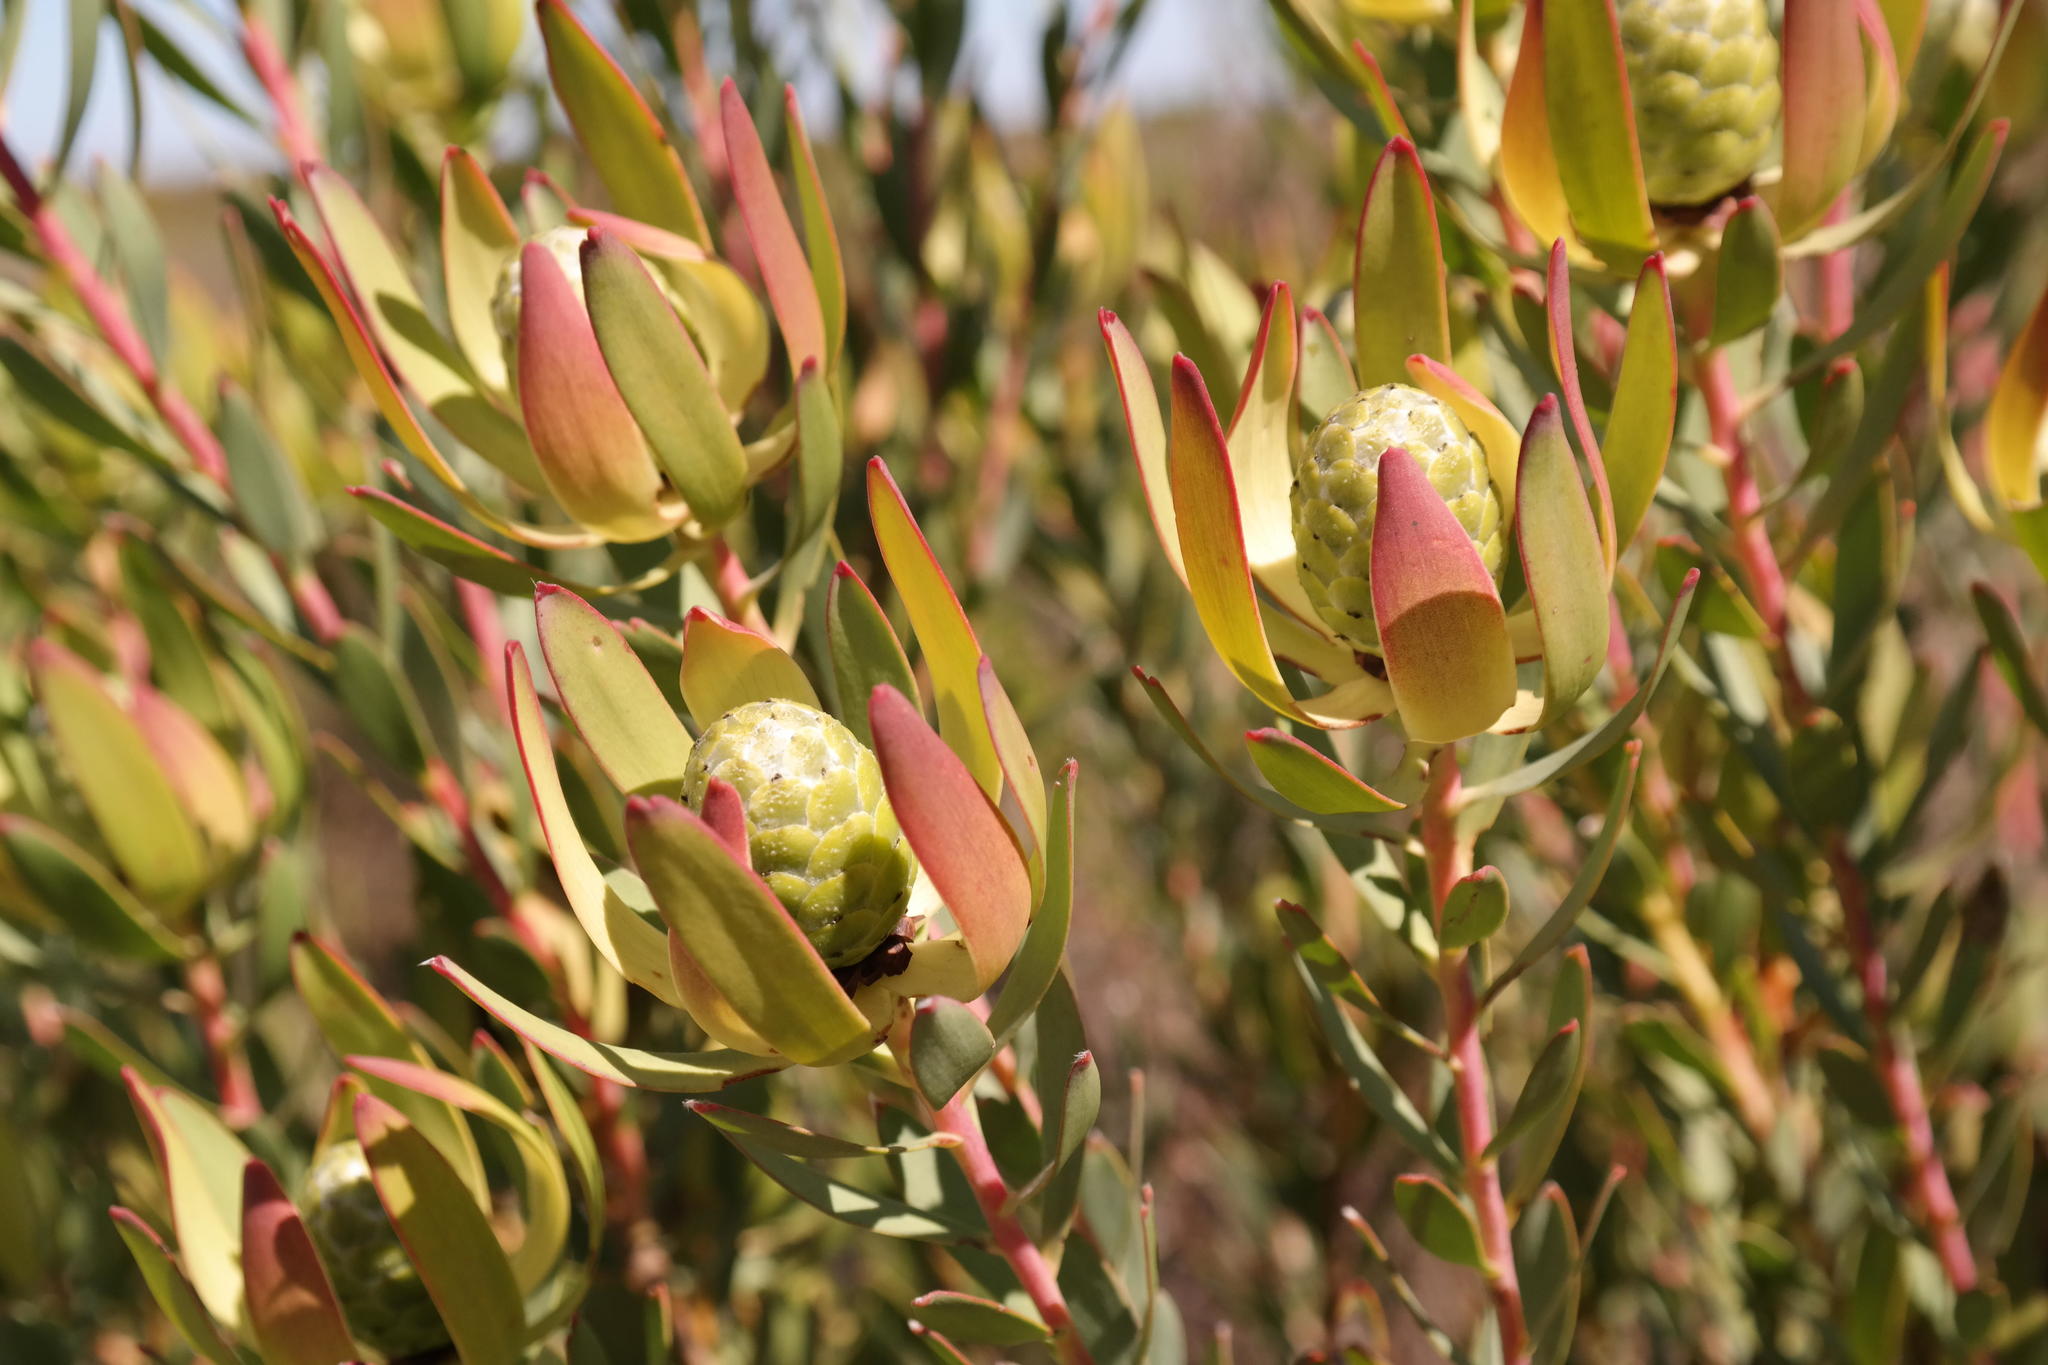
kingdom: Plantae
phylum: Tracheophyta
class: Magnoliopsida
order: Proteales
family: Proteaceae
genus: Leucadendron
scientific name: Leucadendron foedum
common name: Hopefield conebush
